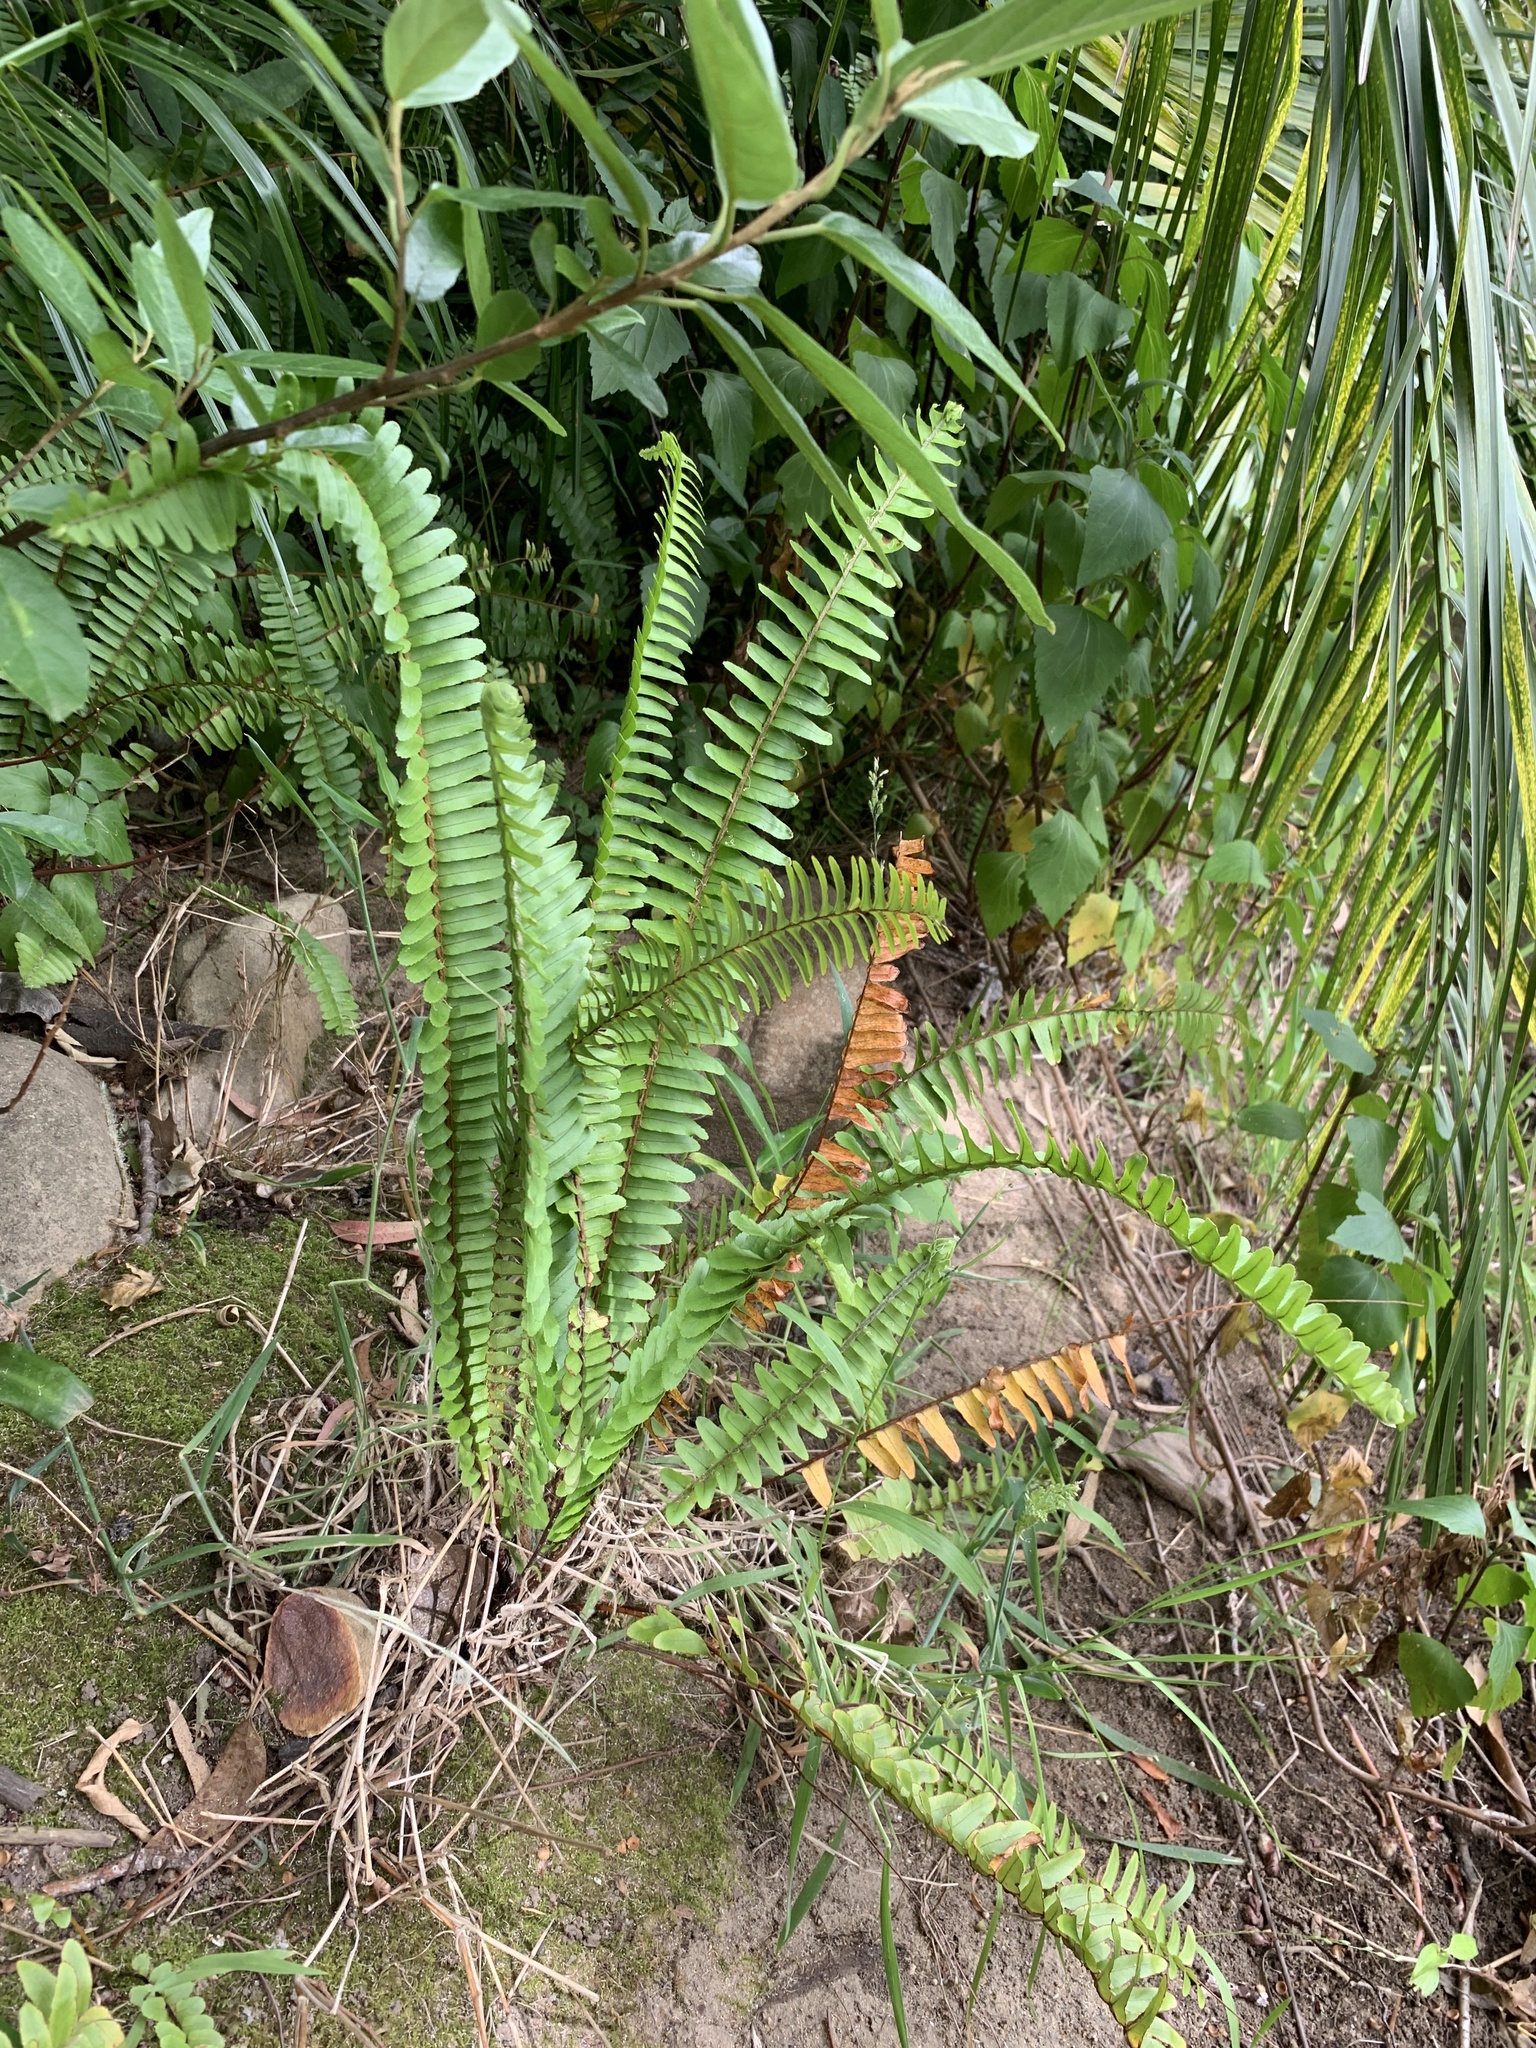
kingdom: Plantae
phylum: Tracheophyta
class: Polypodiopsida
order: Polypodiales
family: Nephrolepidaceae
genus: Nephrolepis
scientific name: Nephrolepis cordifolia
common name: Narrow swordfern
